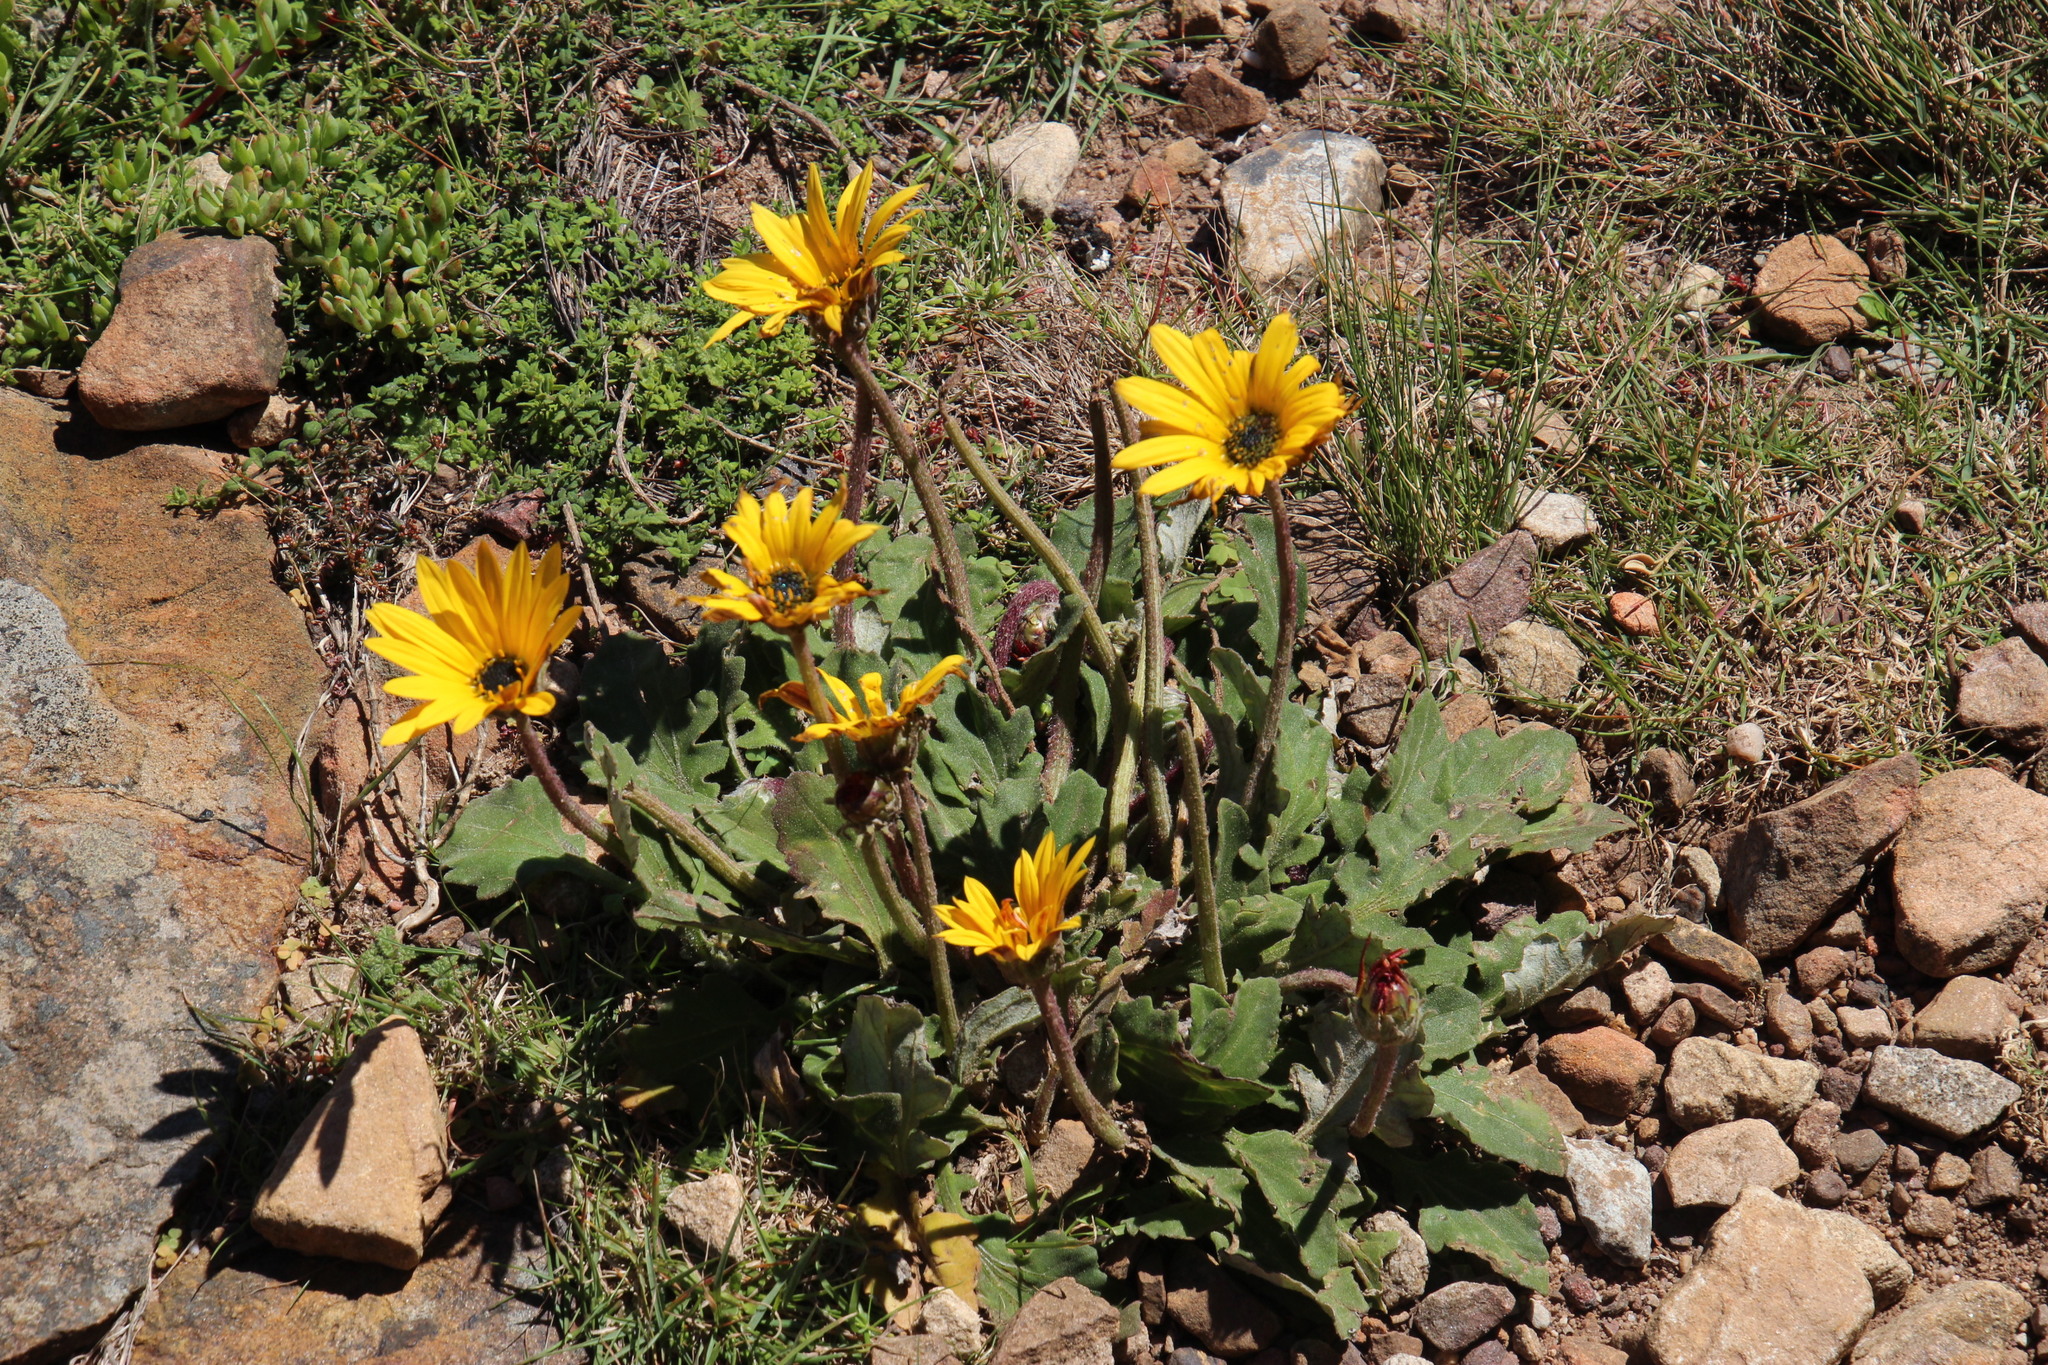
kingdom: Plantae
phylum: Tracheophyta
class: Magnoliopsida
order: Asterales
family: Asteraceae
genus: Arctotis
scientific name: Arctotis acaulis
